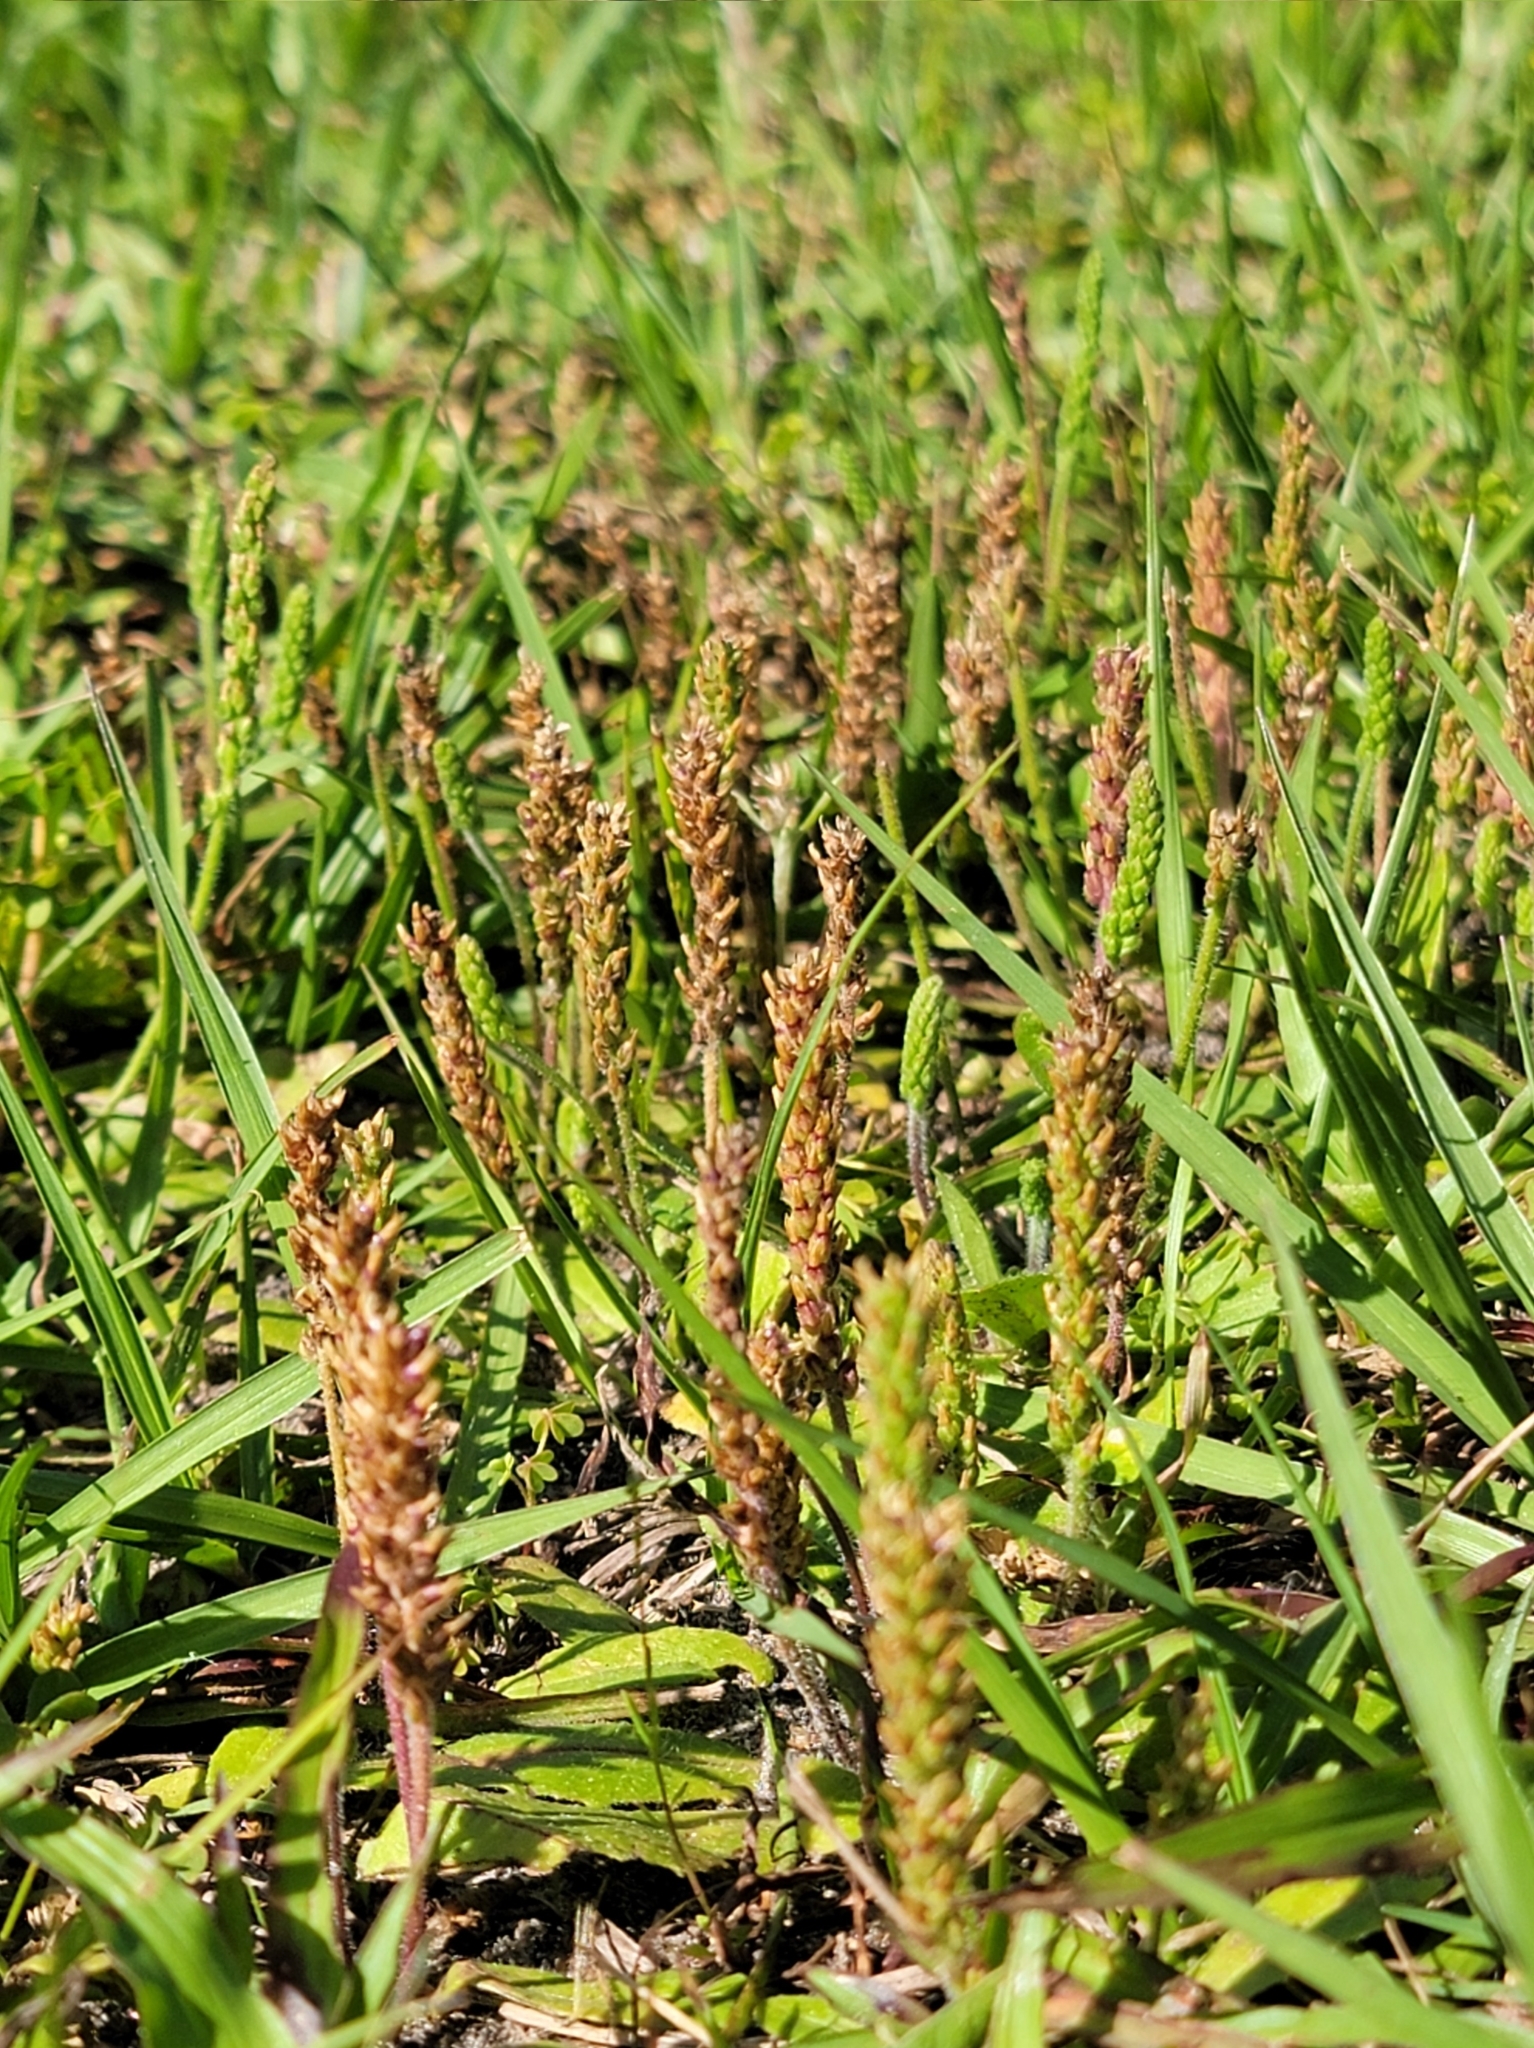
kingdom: Plantae
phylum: Tracheophyta
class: Magnoliopsida
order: Lamiales
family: Plantaginaceae
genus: Plantago
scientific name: Plantago virginica
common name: Hoary plantain
